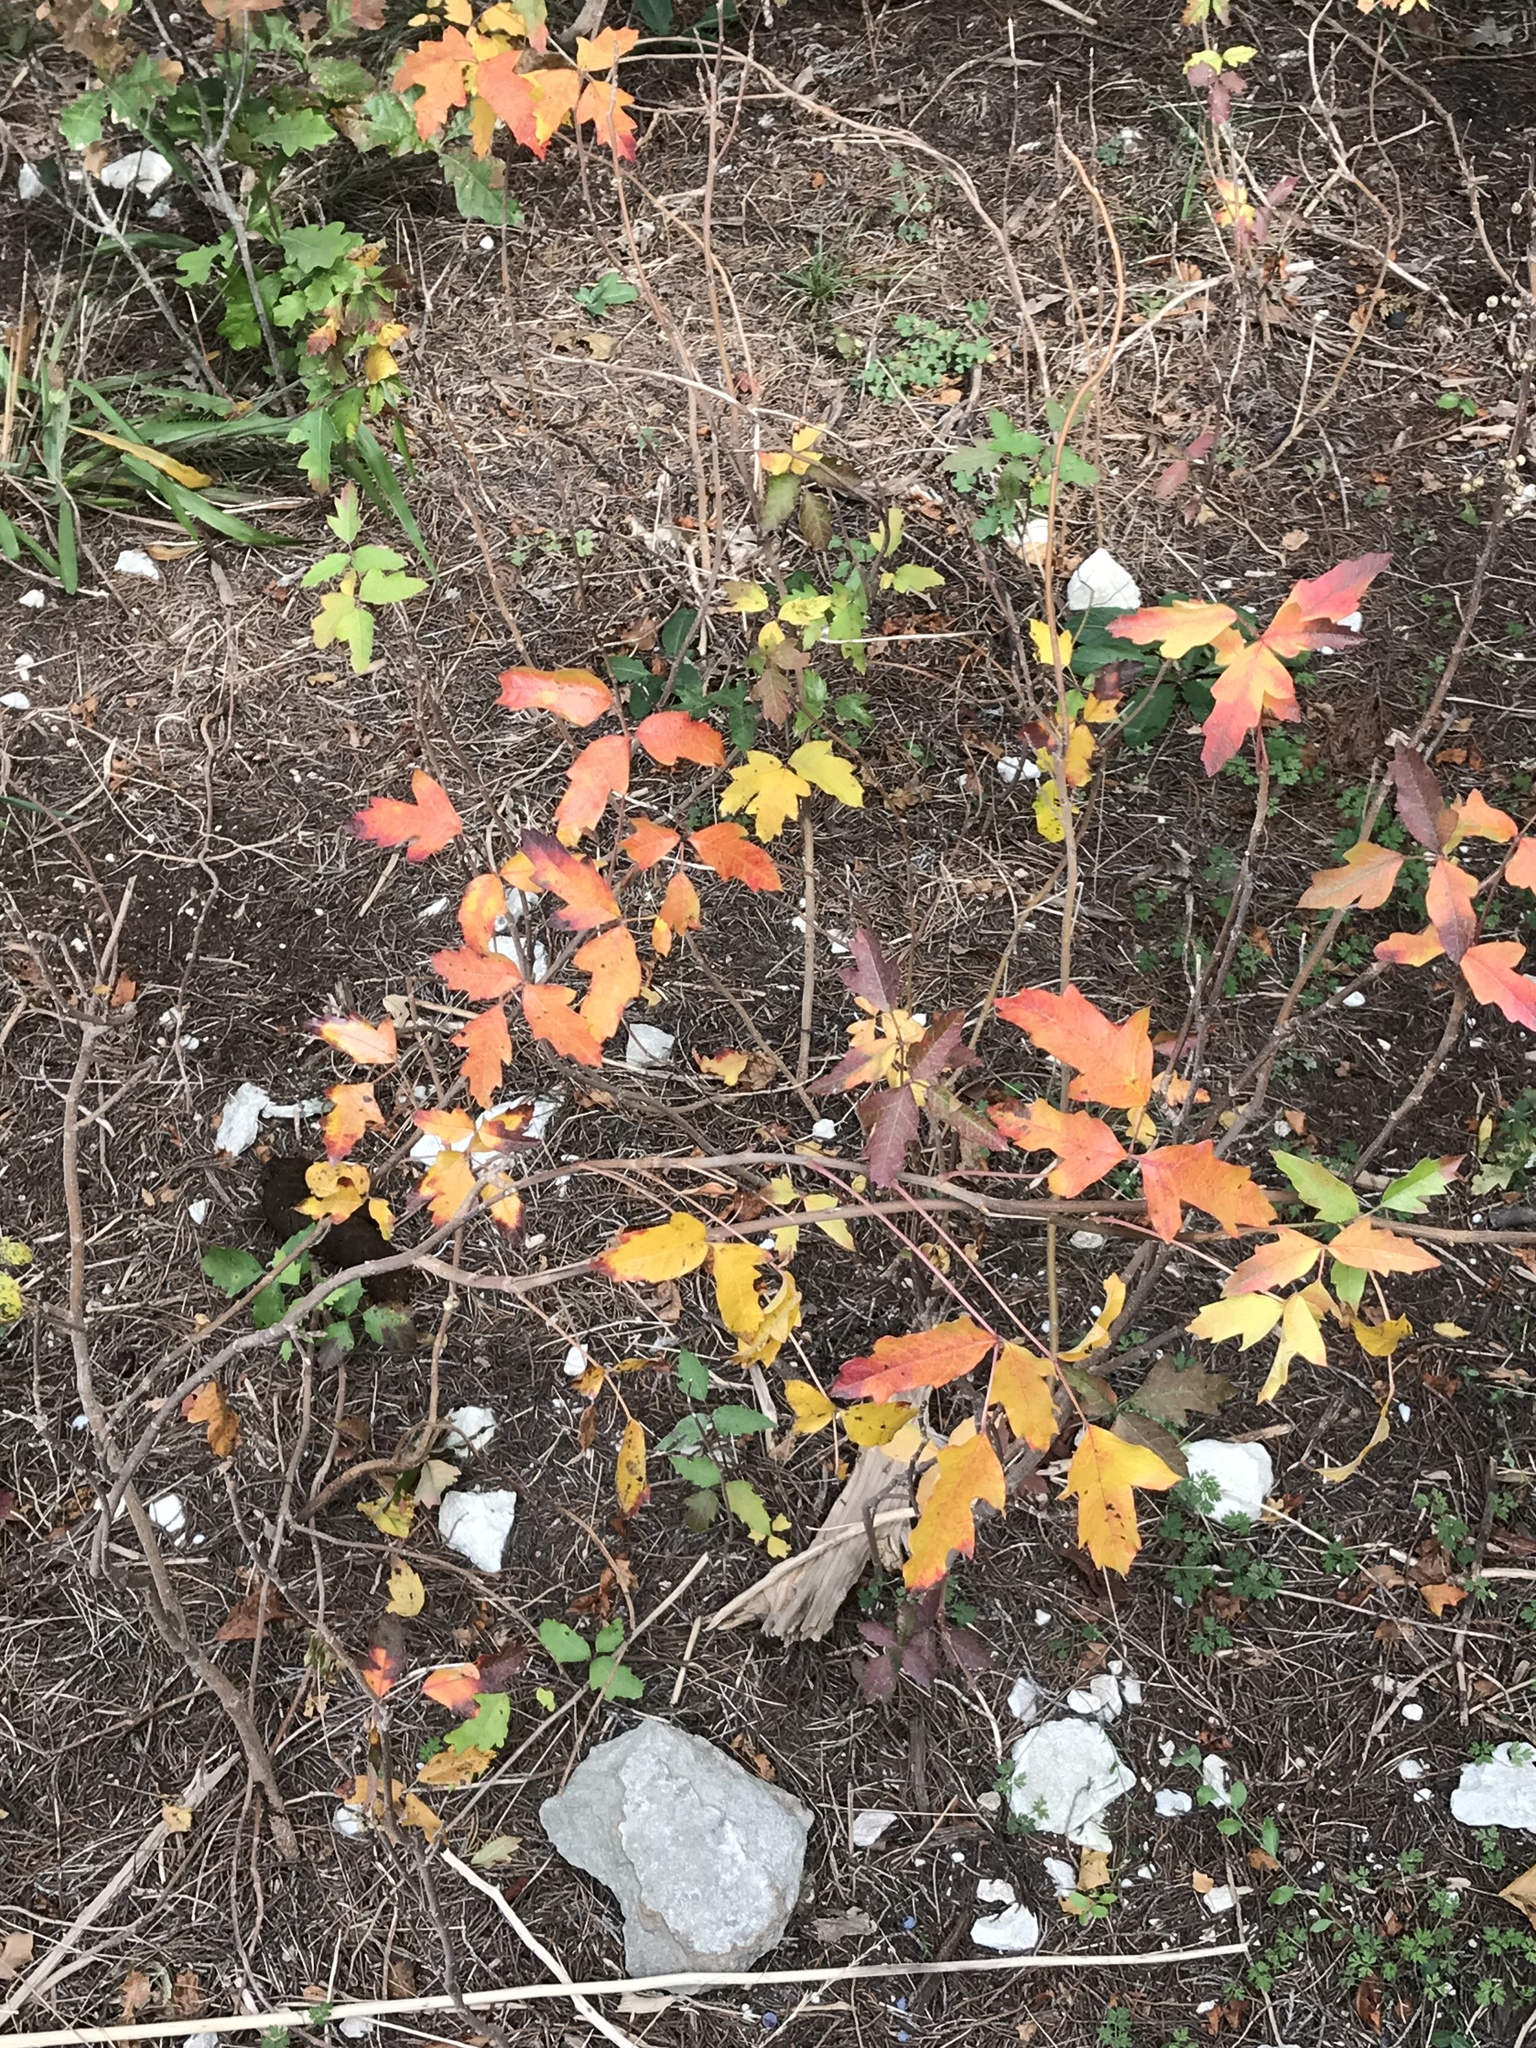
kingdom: Plantae
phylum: Tracheophyta
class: Magnoliopsida
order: Sapindales
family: Anacardiaceae
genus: Toxicodendron
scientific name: Toxicodendron radicans
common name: Poison ivy
